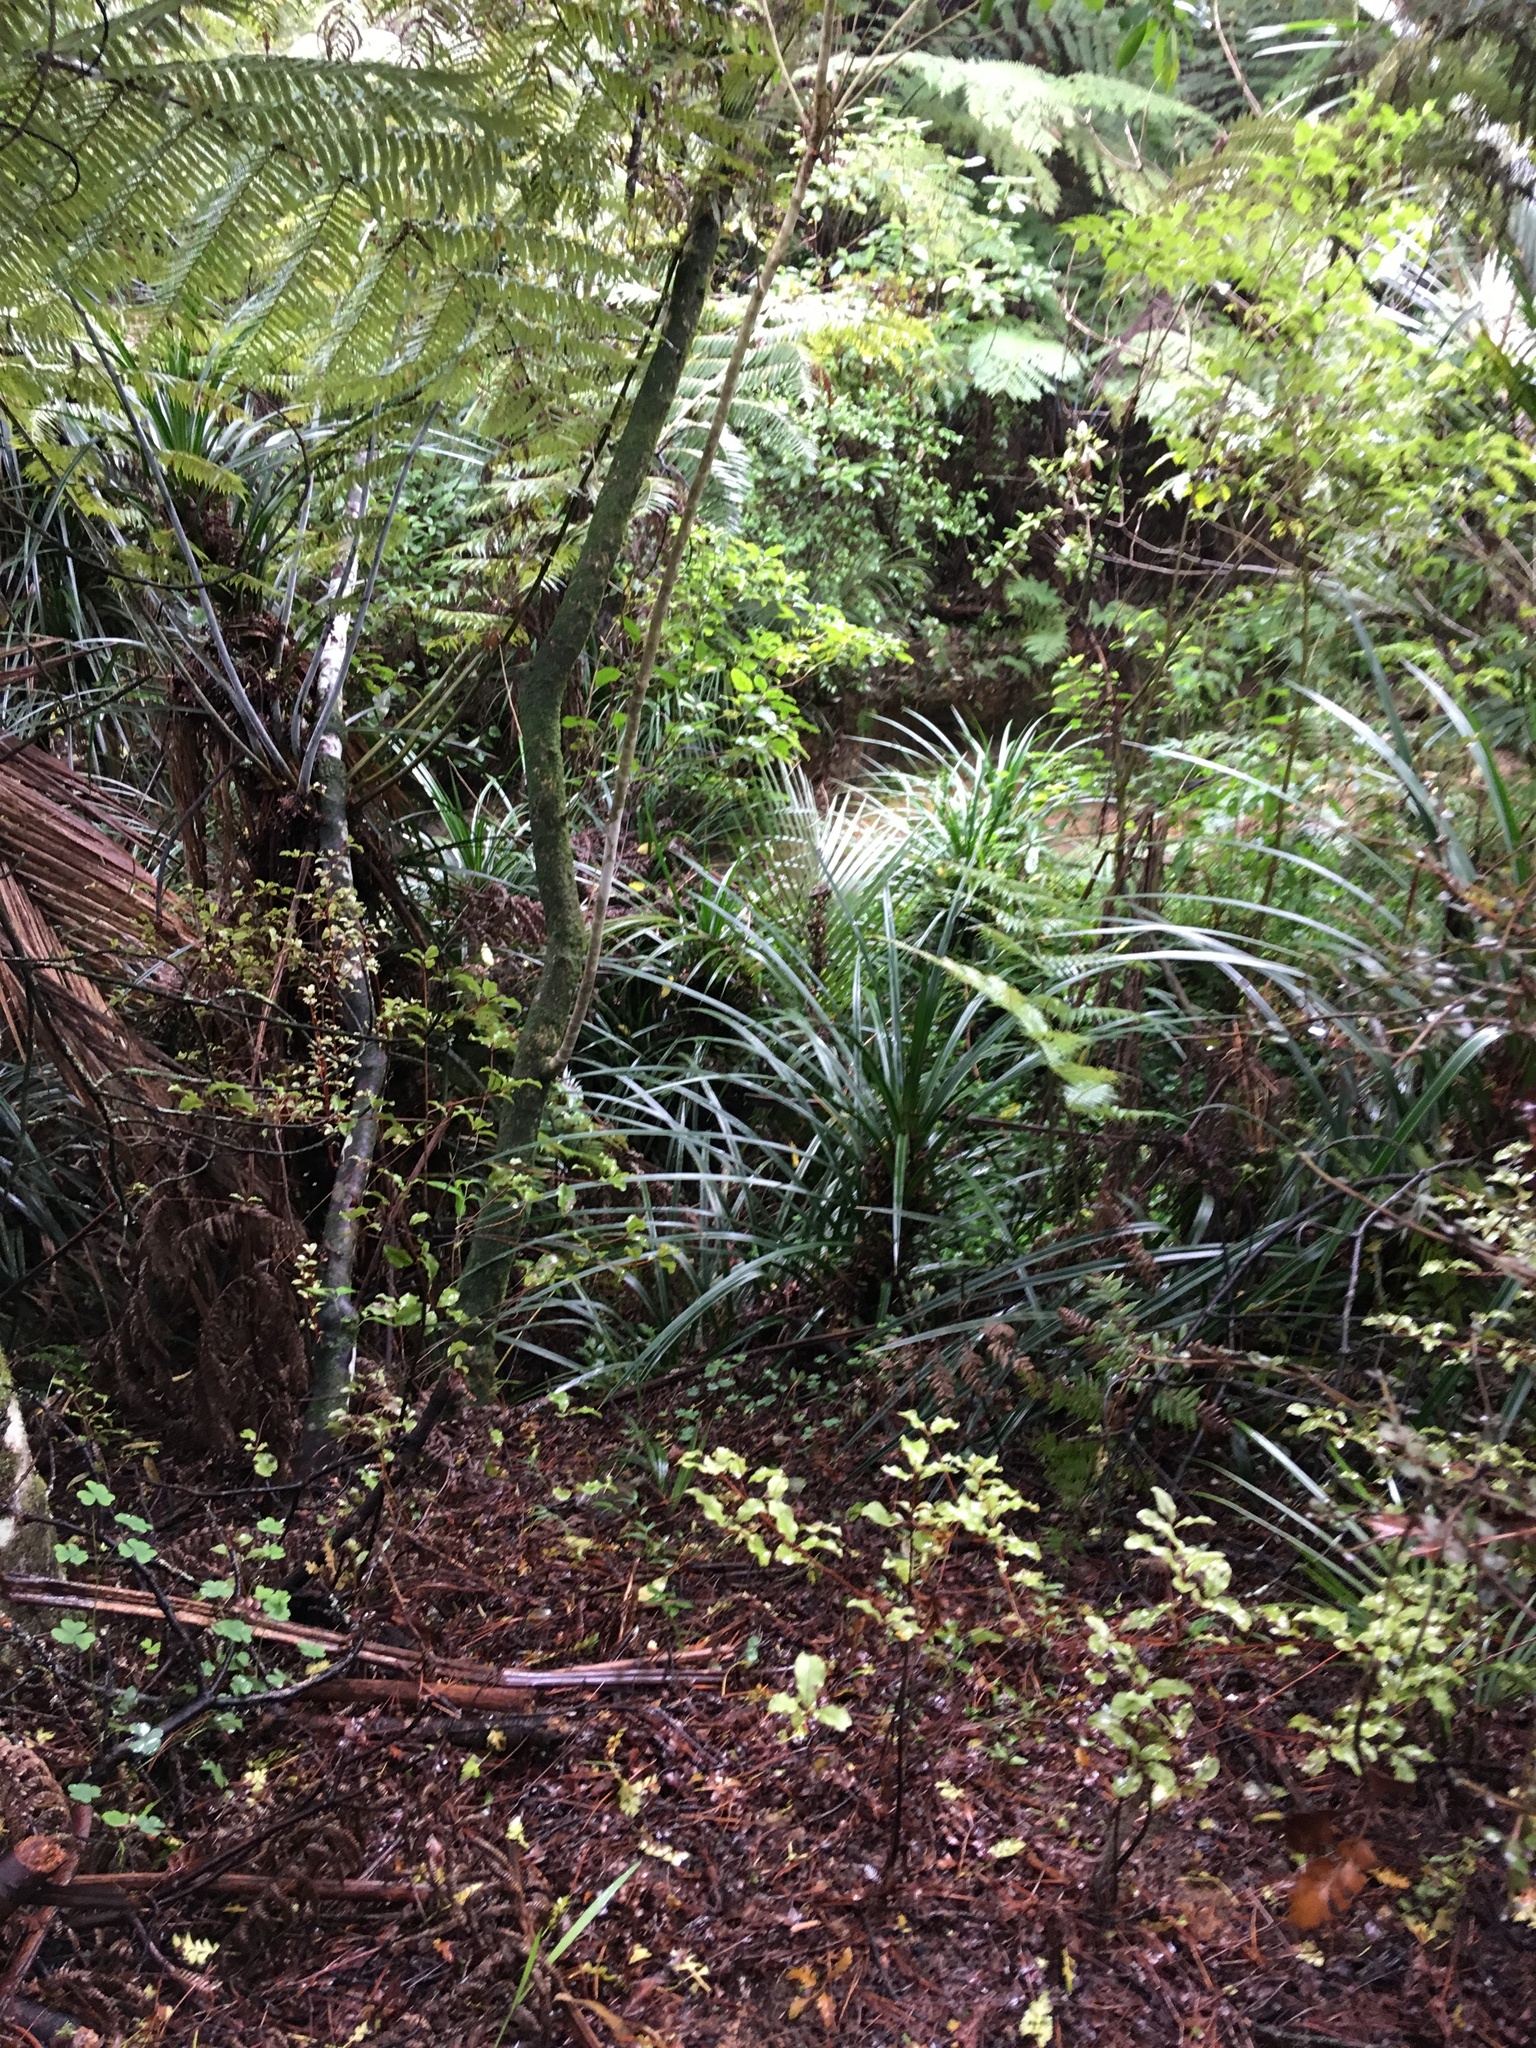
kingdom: Plantae
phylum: Tracheophyta
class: Liliopsida
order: Pandanales
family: Pandanaceae
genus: Freycinetia
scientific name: Freycinetia banksii
